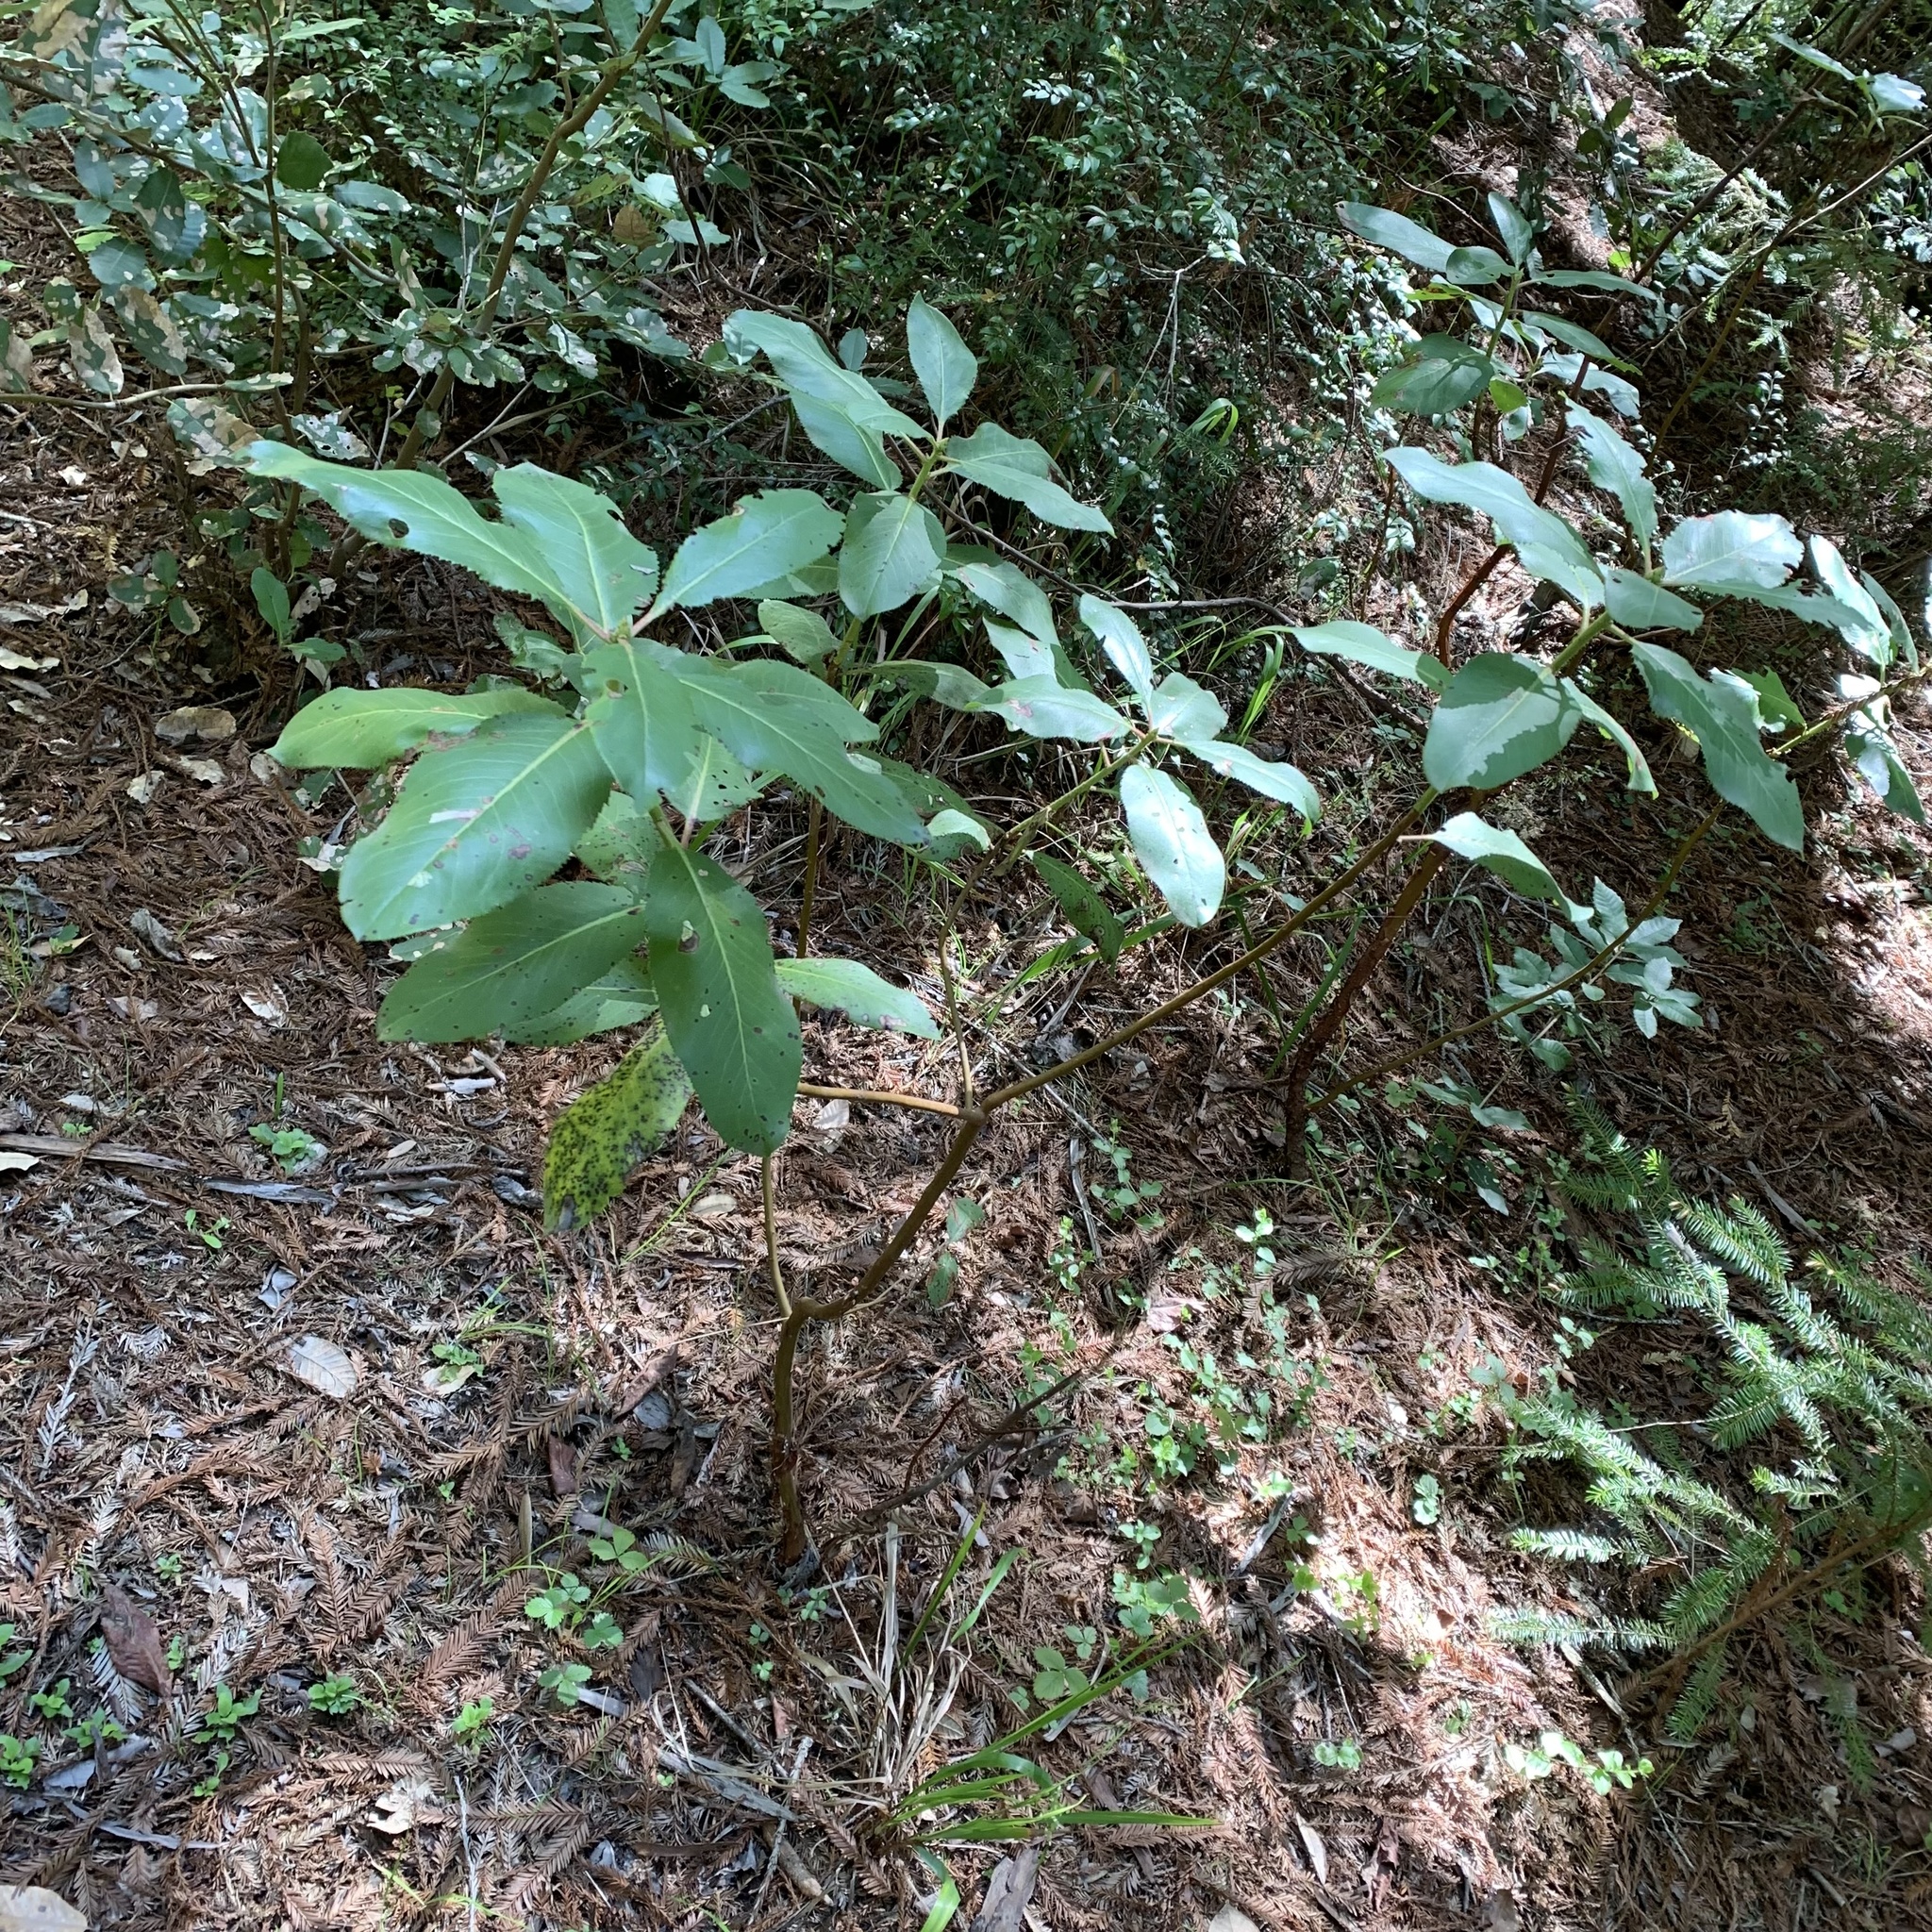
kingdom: Plantae
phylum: Tracheophyta
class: Magnoliopsida
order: Ericales
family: Ericaceae
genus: Arbutus
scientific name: Arbutus menziesii
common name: Pacific madrone
